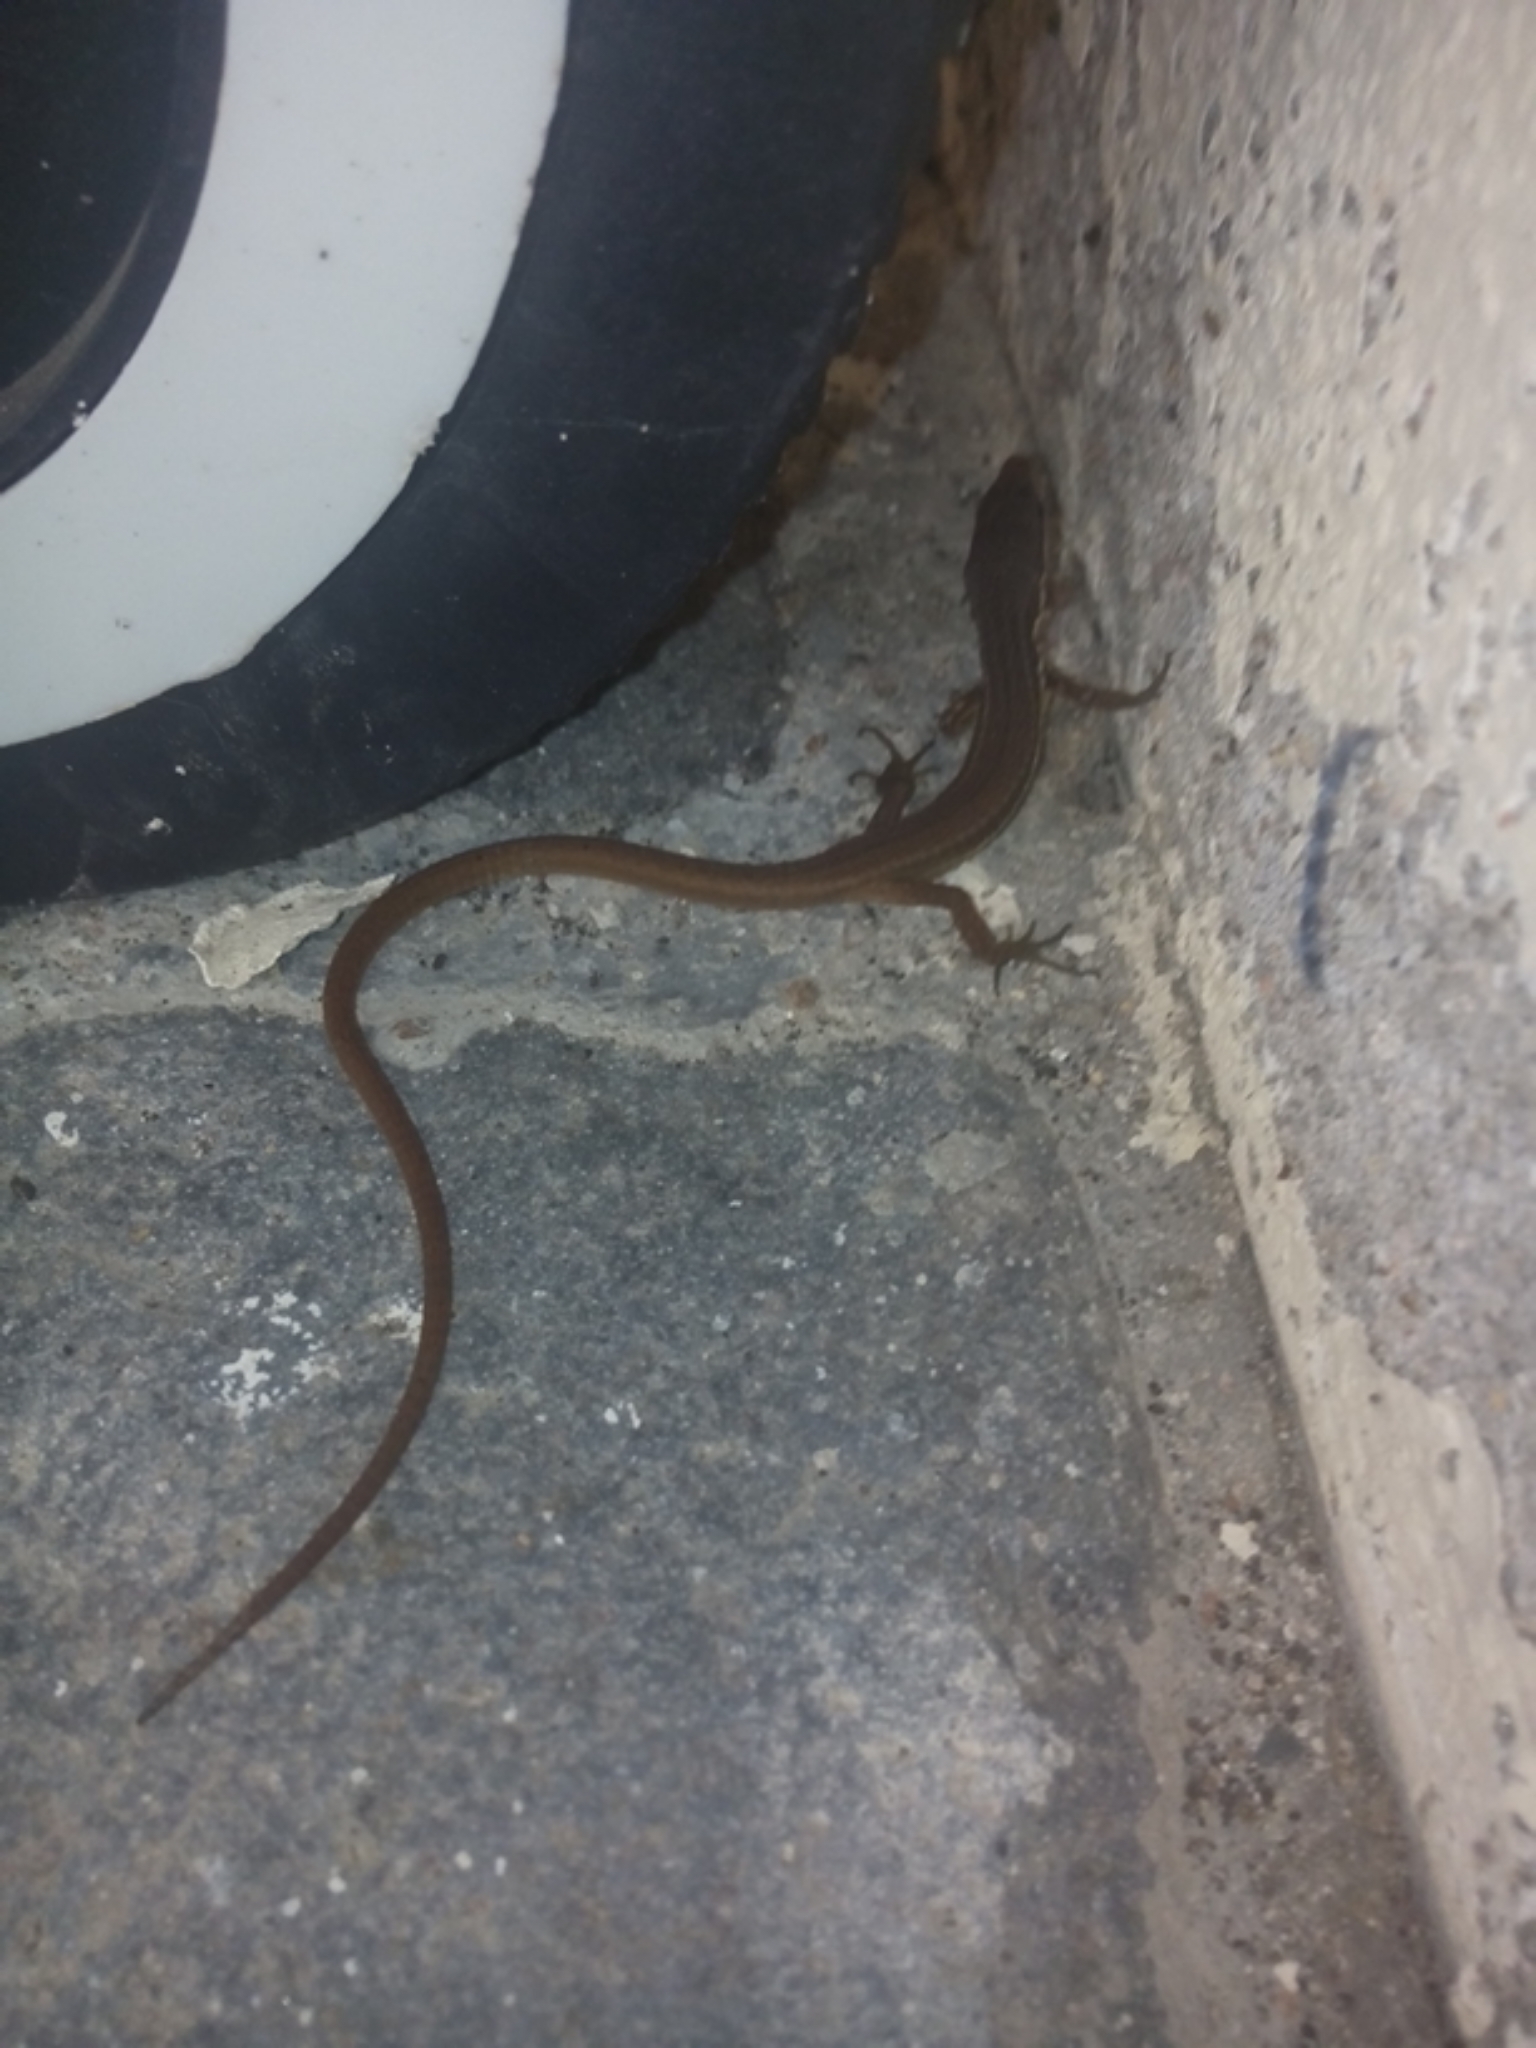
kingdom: Animalia
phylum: Chordata
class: Squamata
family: Gymnophthalmidae
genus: Cercosaura
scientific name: Cercosaura argulus
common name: White-lipped cercosaura
